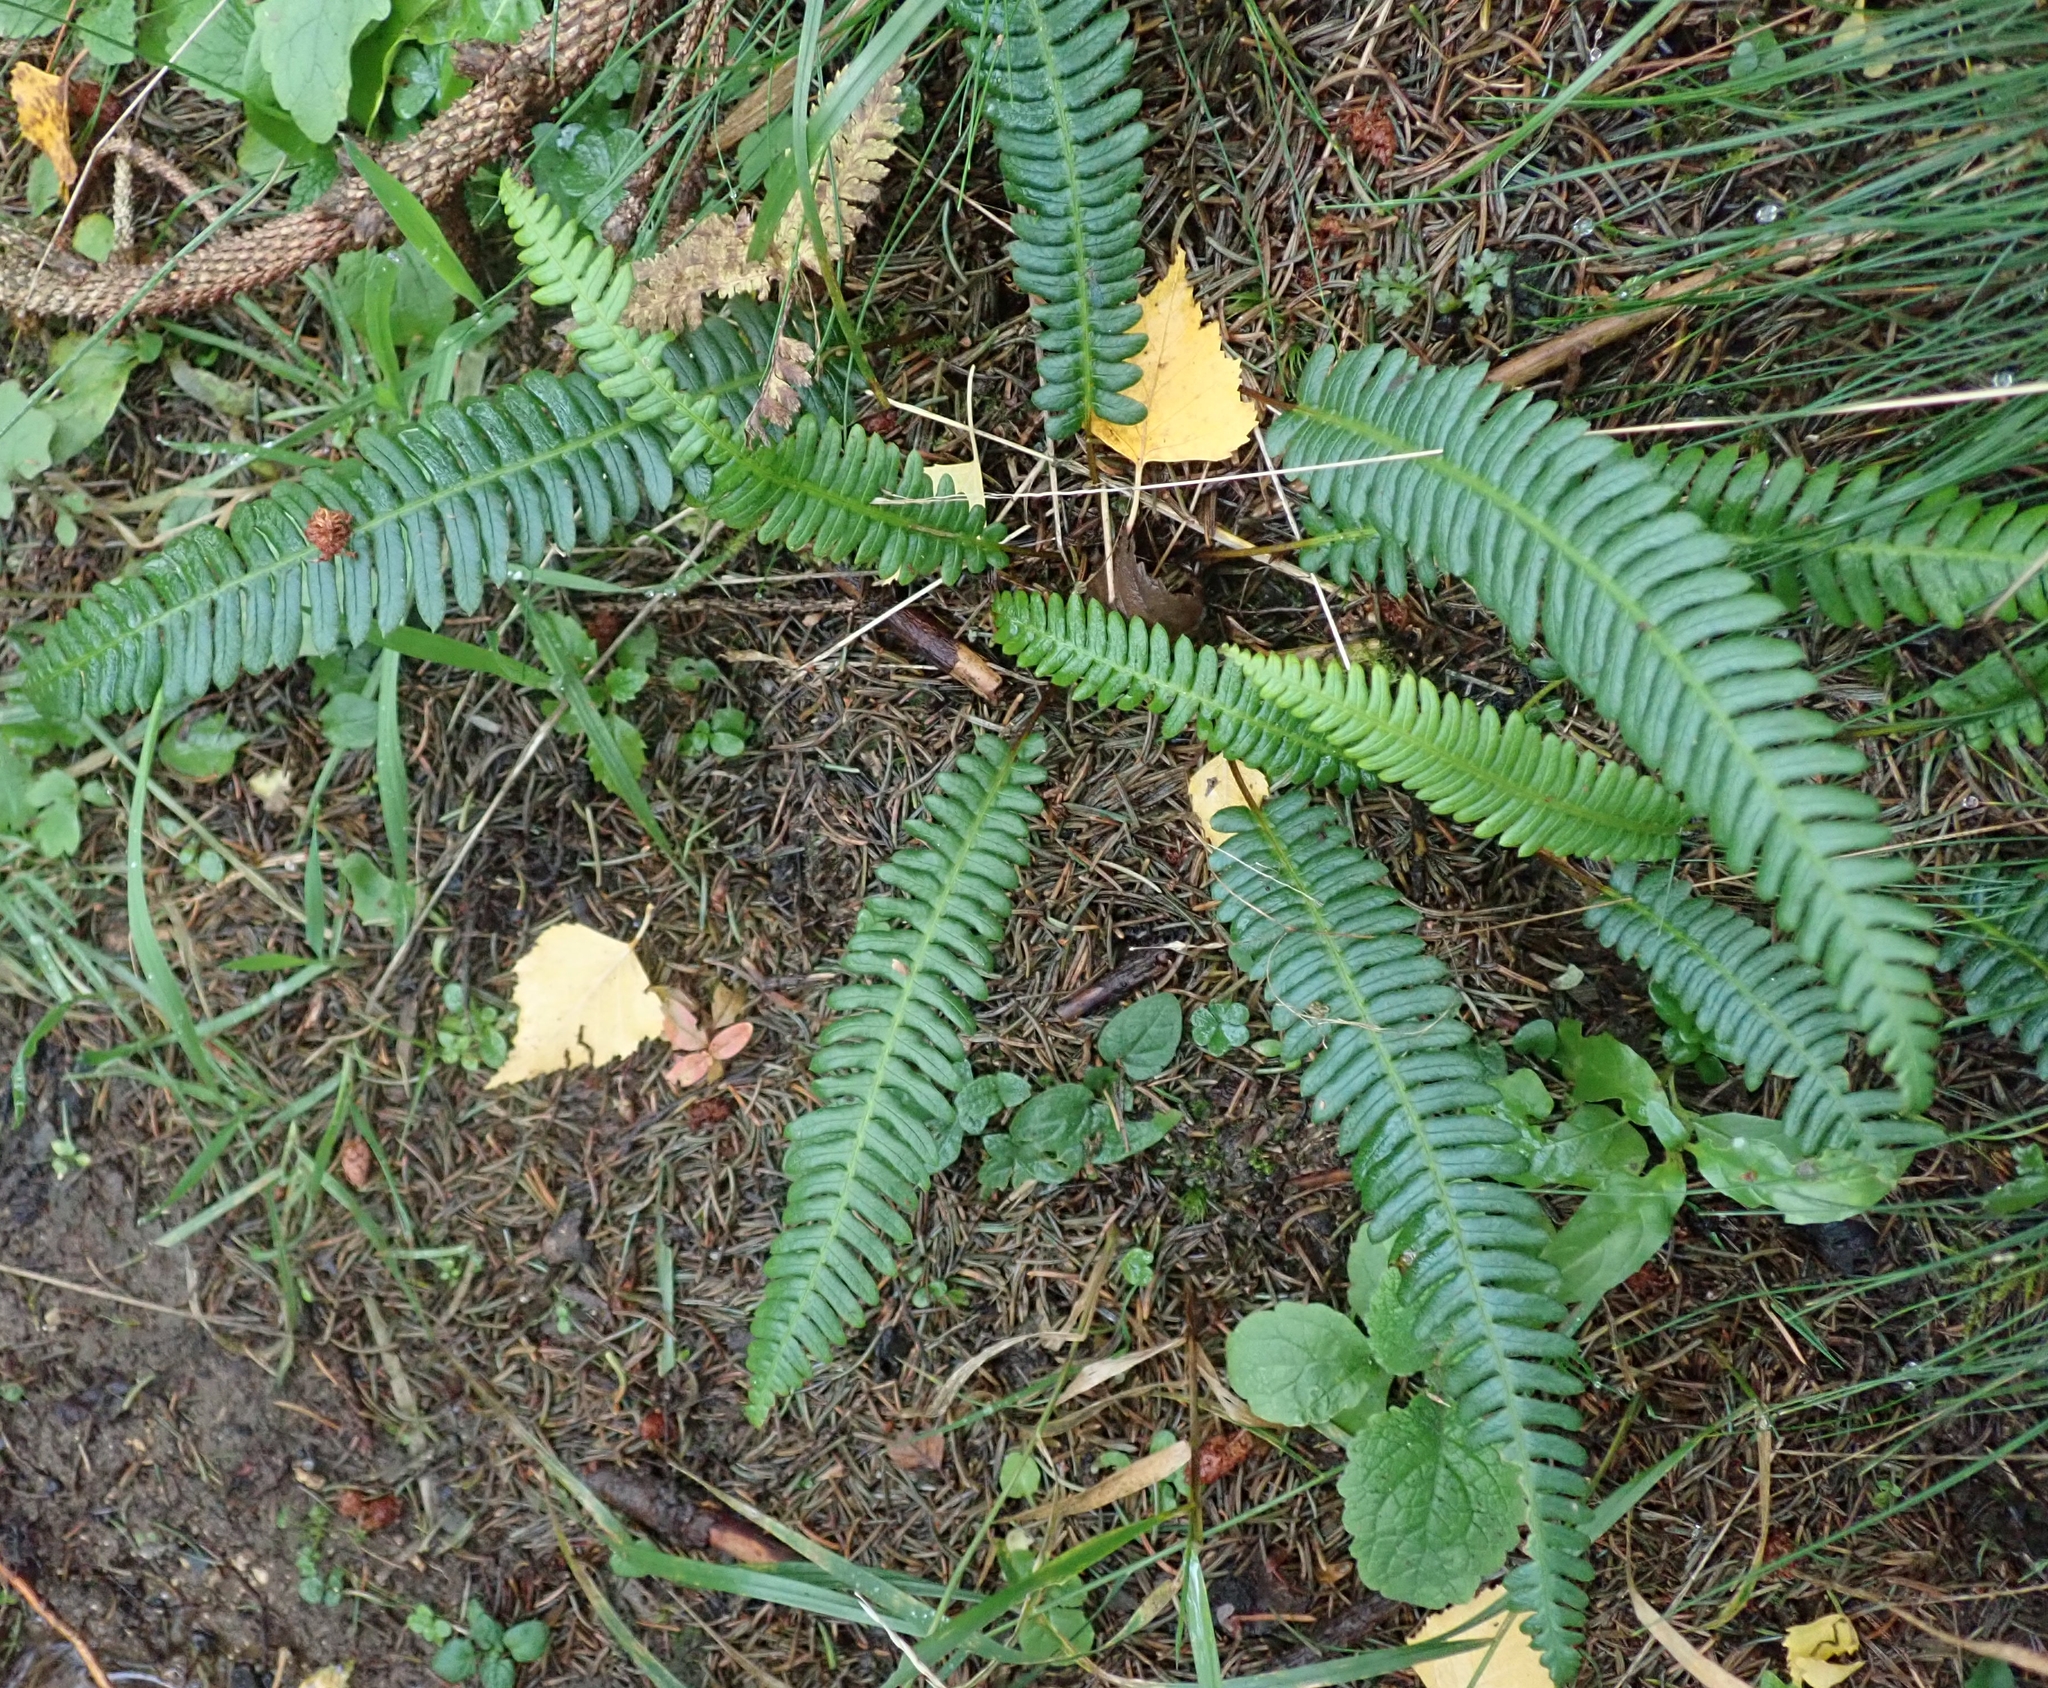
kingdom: Plantae
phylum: Tracheophyta
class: Polypodiopsida
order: Polypodiales
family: Blechnaceae
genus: Struthiopteris
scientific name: Struthiopteris spicant
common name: Deer fern
